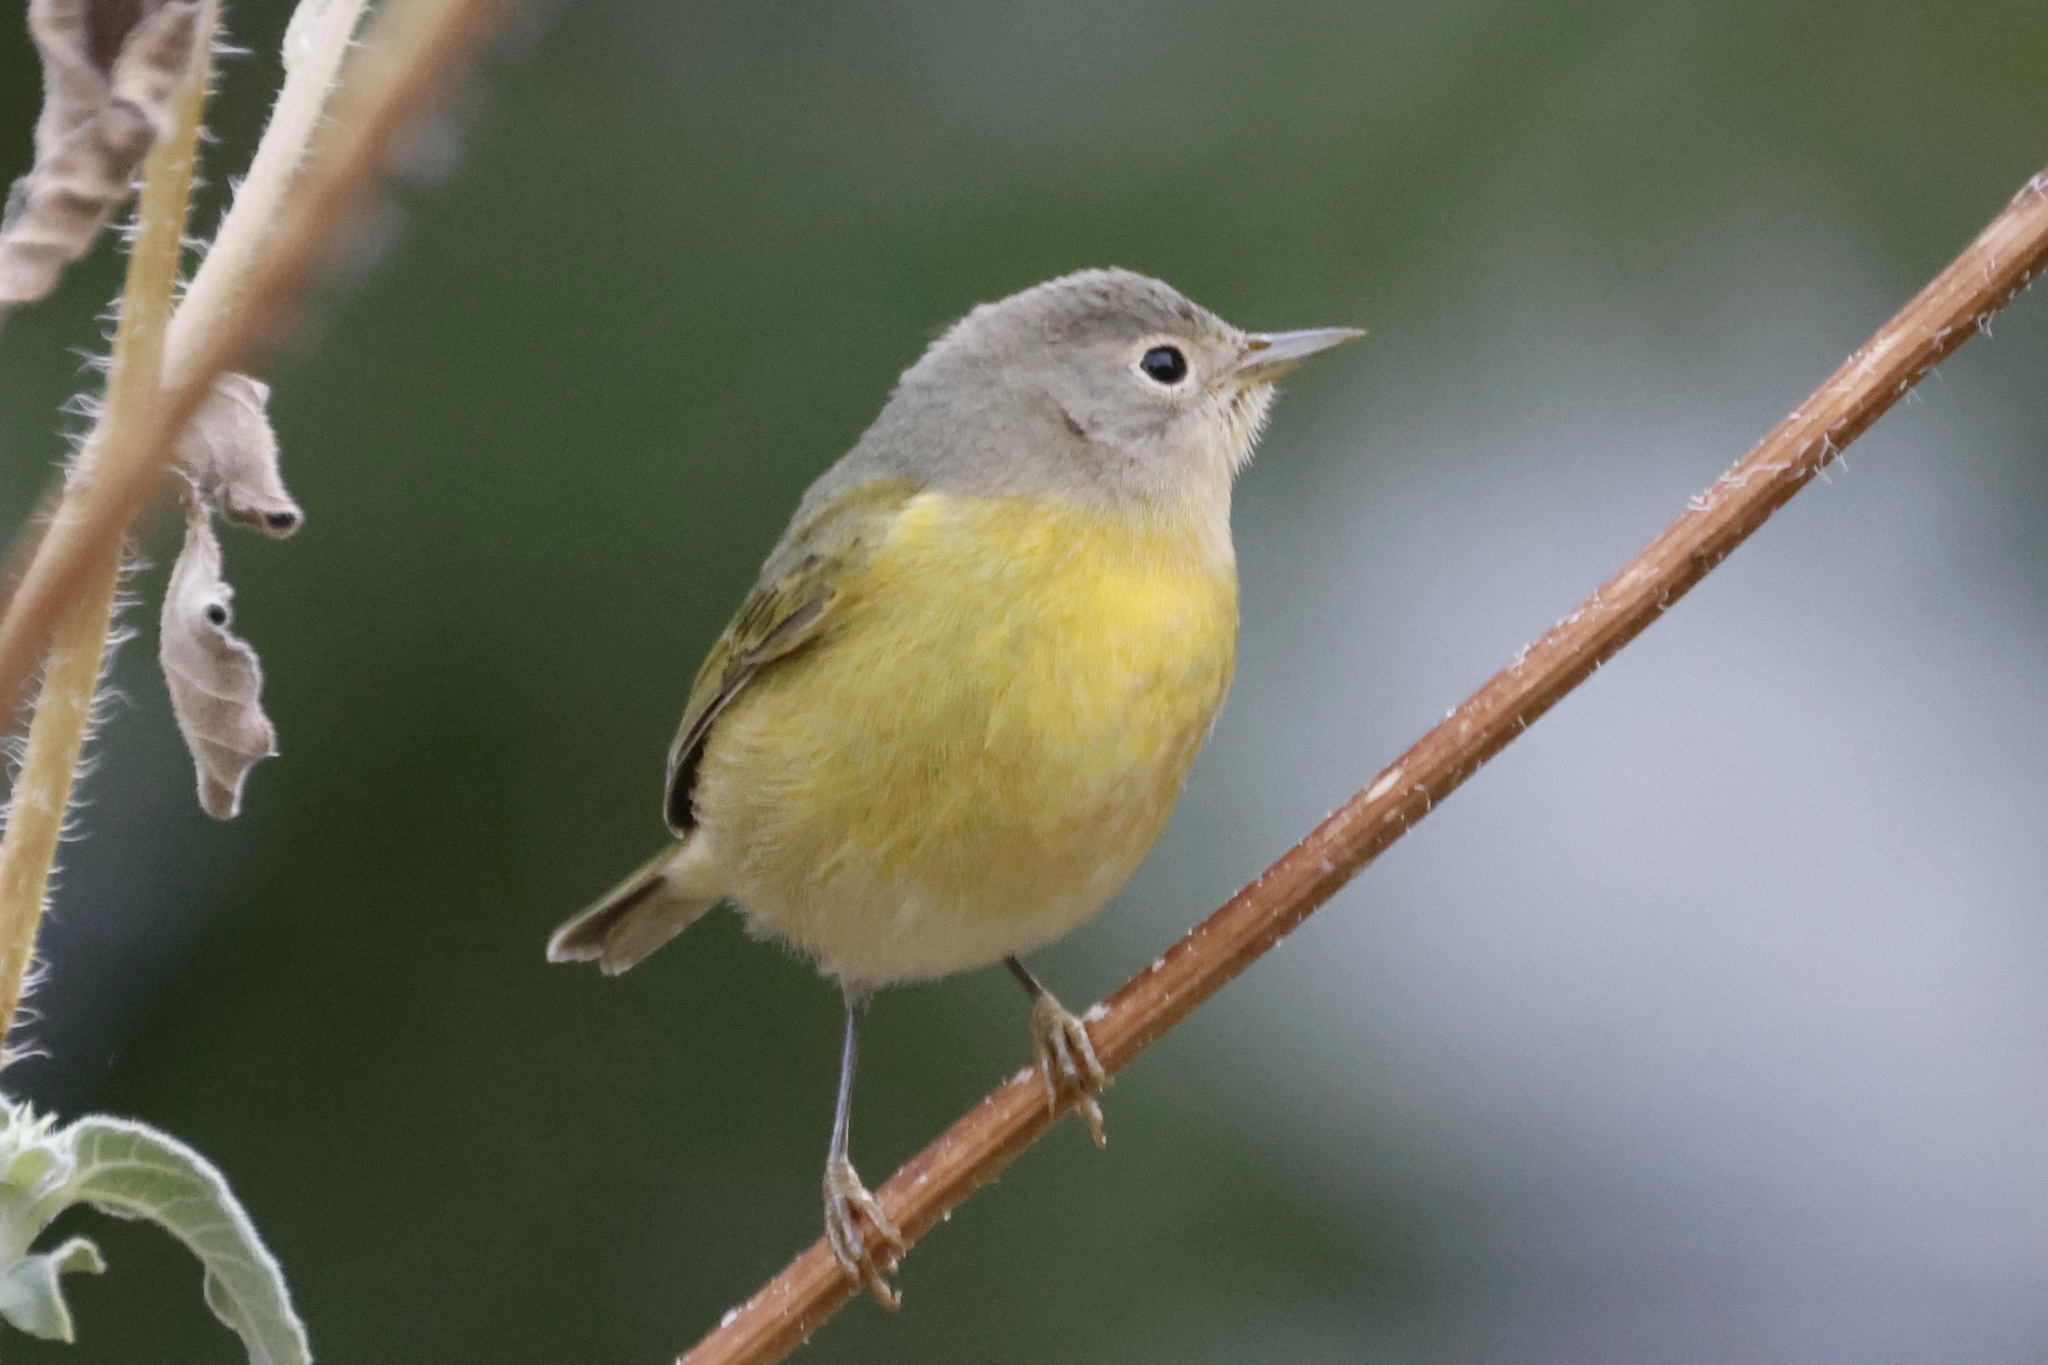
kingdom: Animalia
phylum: Chordata
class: Aves
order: Passeriformes
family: Parulidae
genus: Leiothlypis
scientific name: Leiothlypis ruficapilla
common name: Nashville warbler
